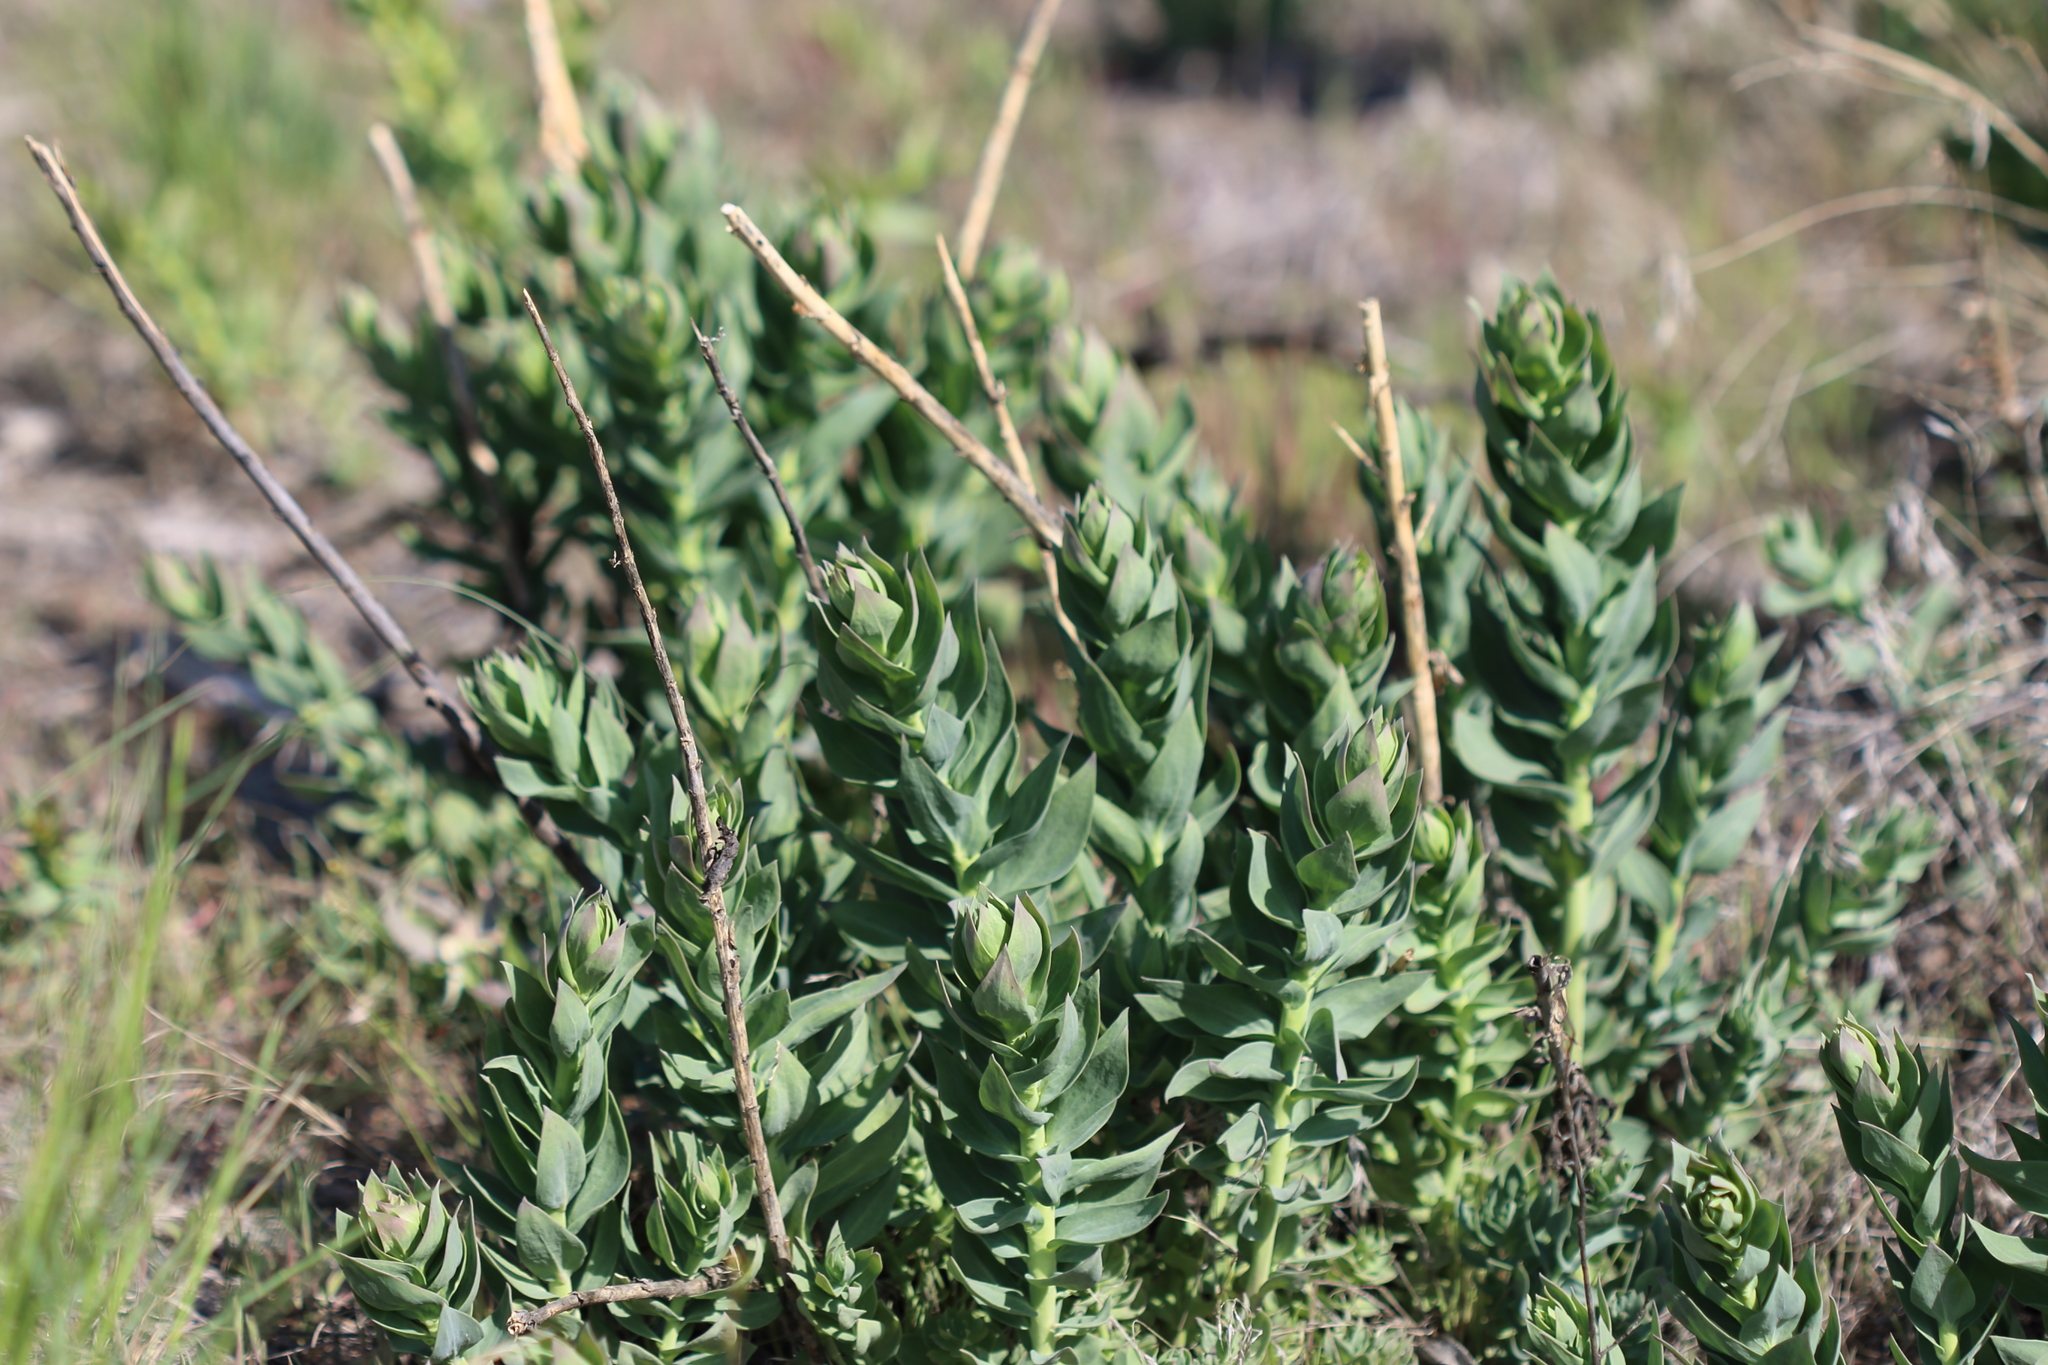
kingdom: Plantae
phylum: Tracheophyta
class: Magnoliopsida
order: Lamiales
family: Plantaginaceae
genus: Linaria
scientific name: Linaria dalmatica
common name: Dalmatian toadflax
